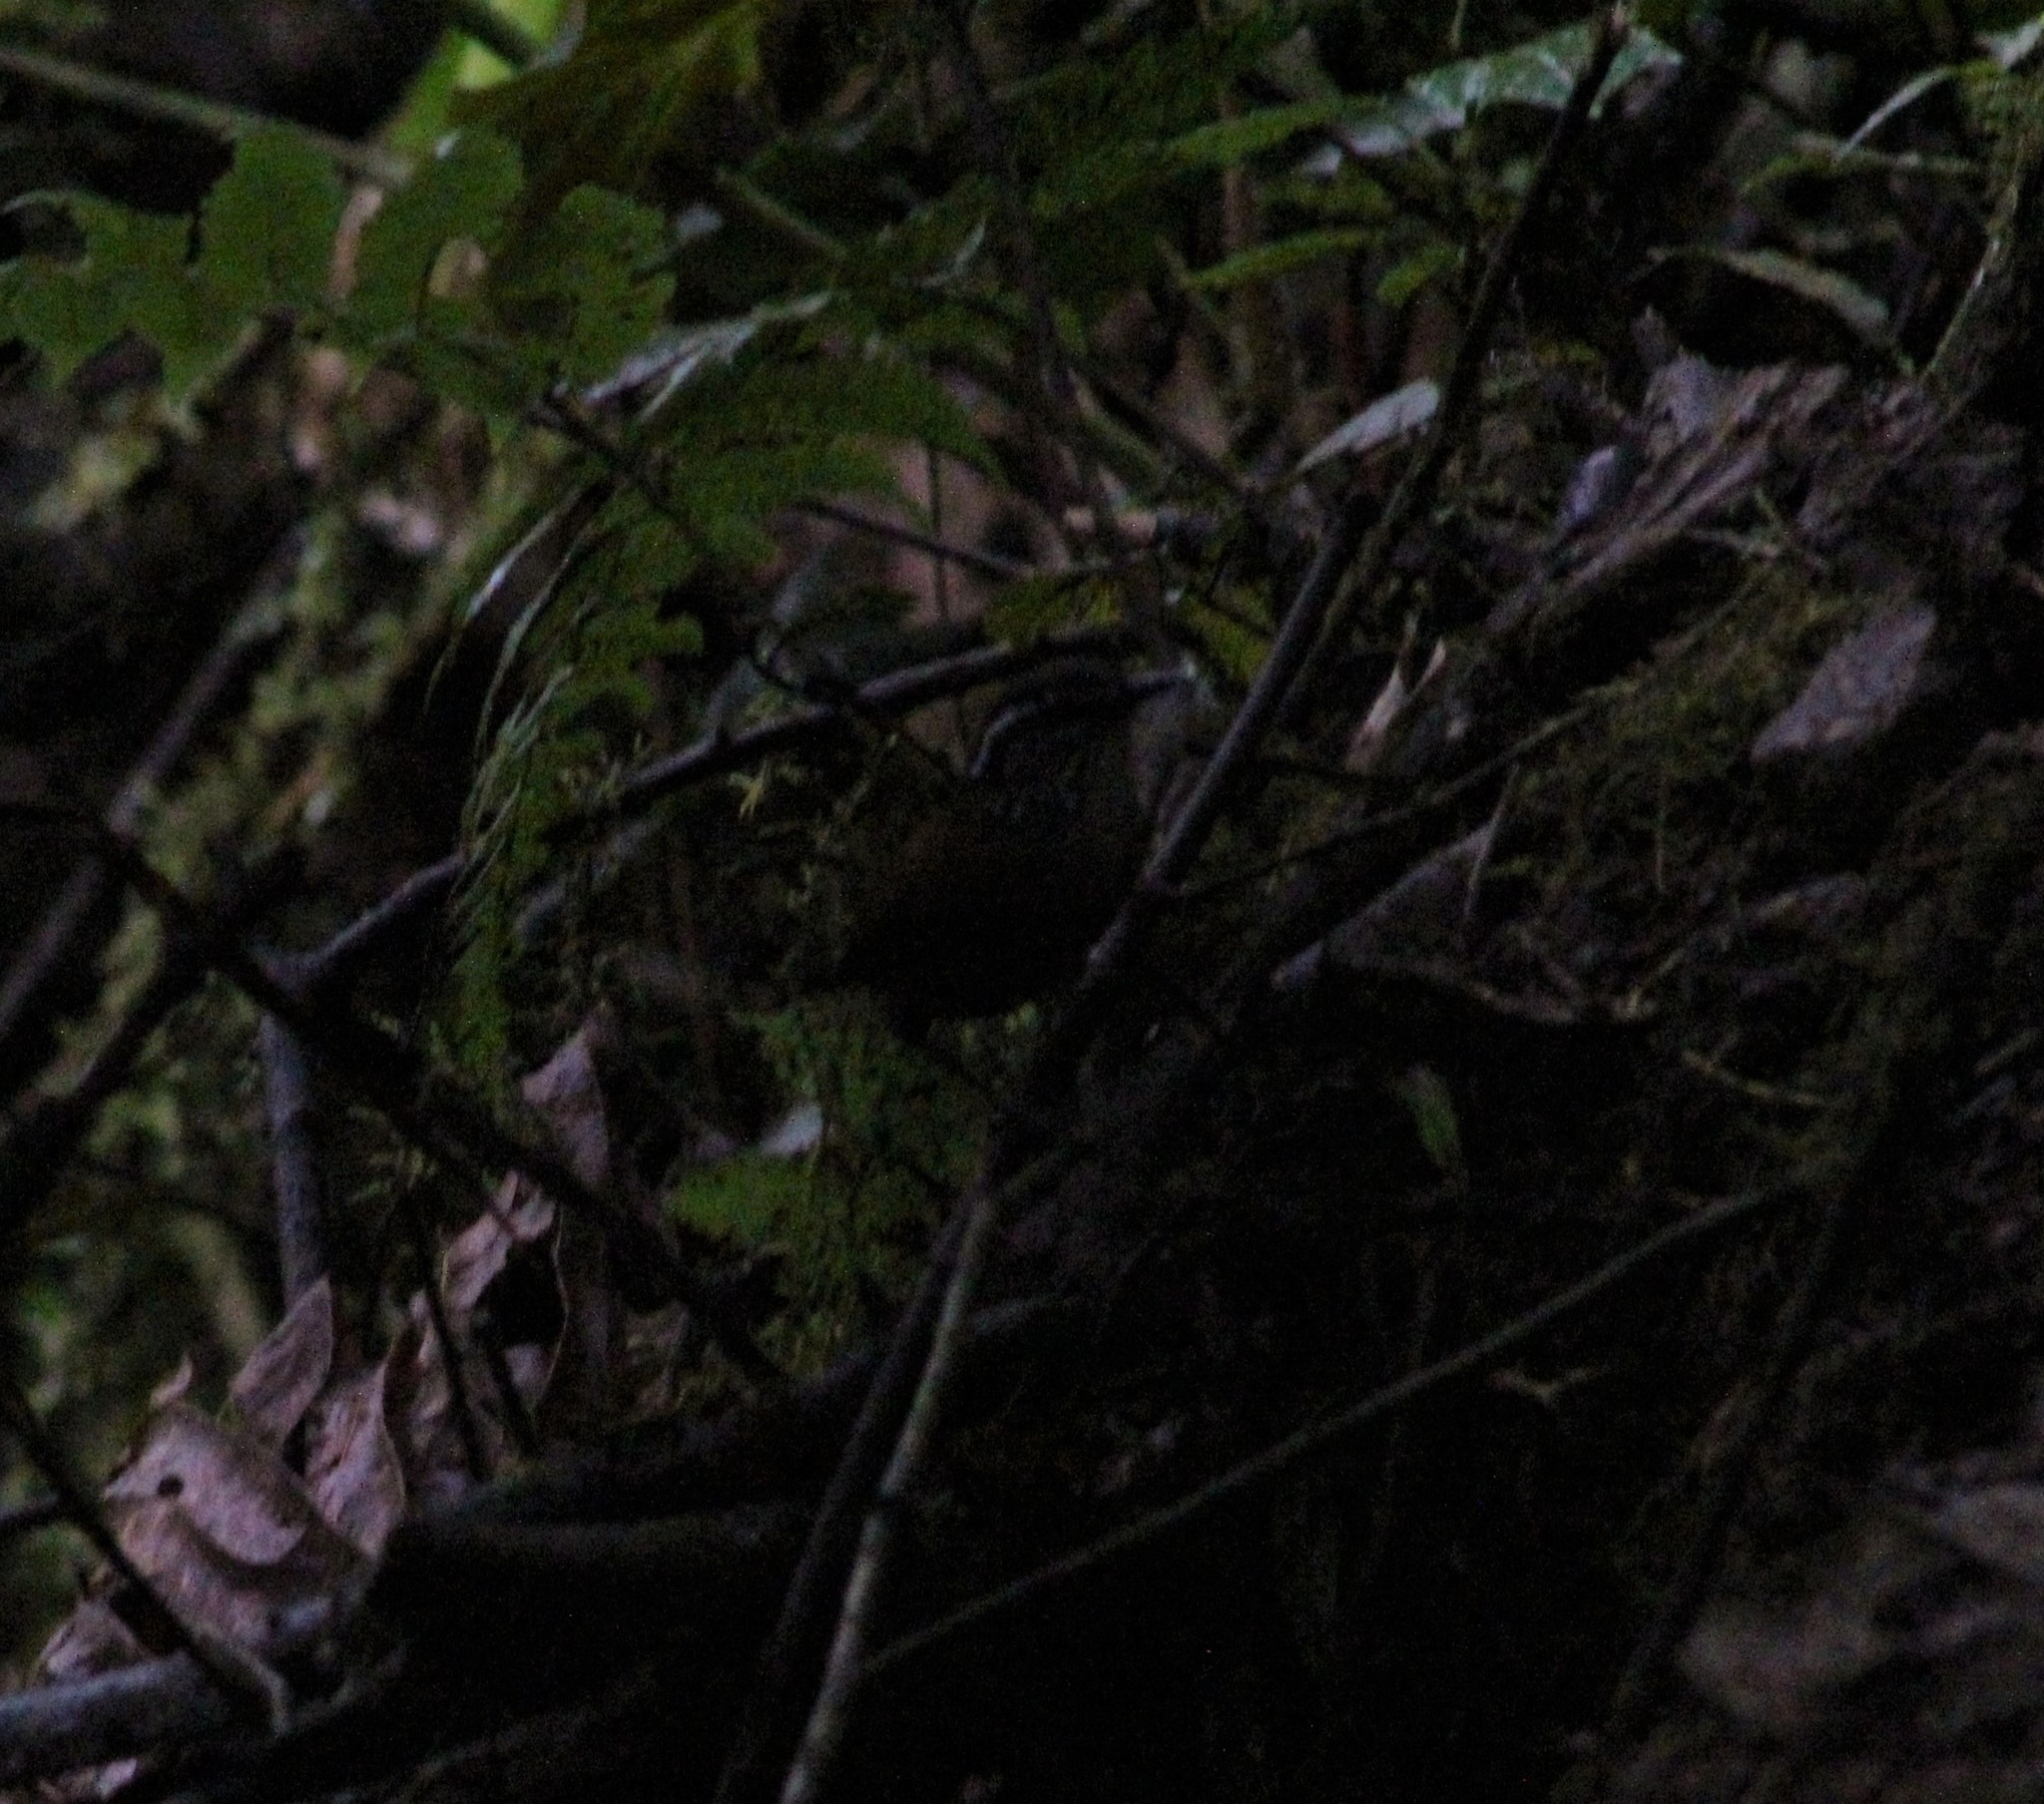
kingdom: Animalia
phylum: Chordata
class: Aves
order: Passeriformes
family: Troglodytidae
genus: Henicorhina
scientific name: Henicorhina leucophrys
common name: Gray-breasted wood-wren
